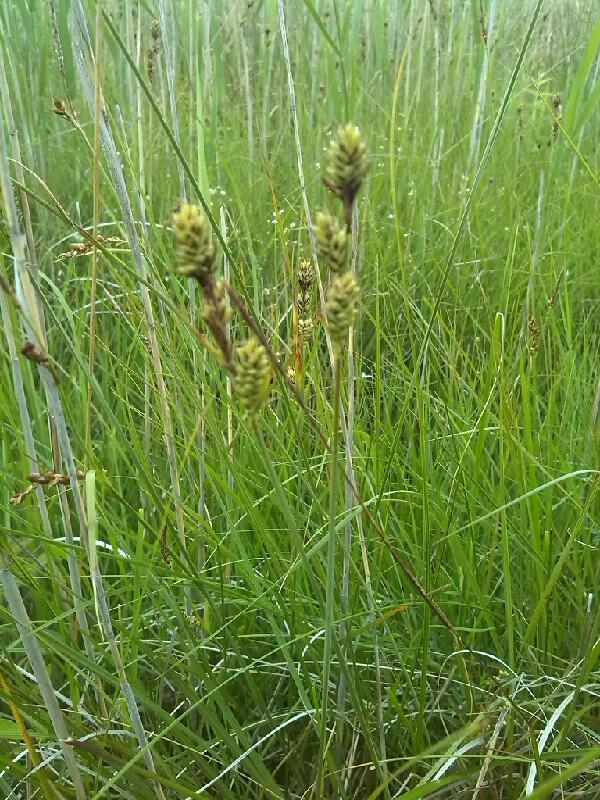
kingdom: Plantae
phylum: Tracheophyta
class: Liliopsida
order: Poales
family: Cyperaceae
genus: Carex
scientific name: Carex buxbaumii
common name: Club sedge
